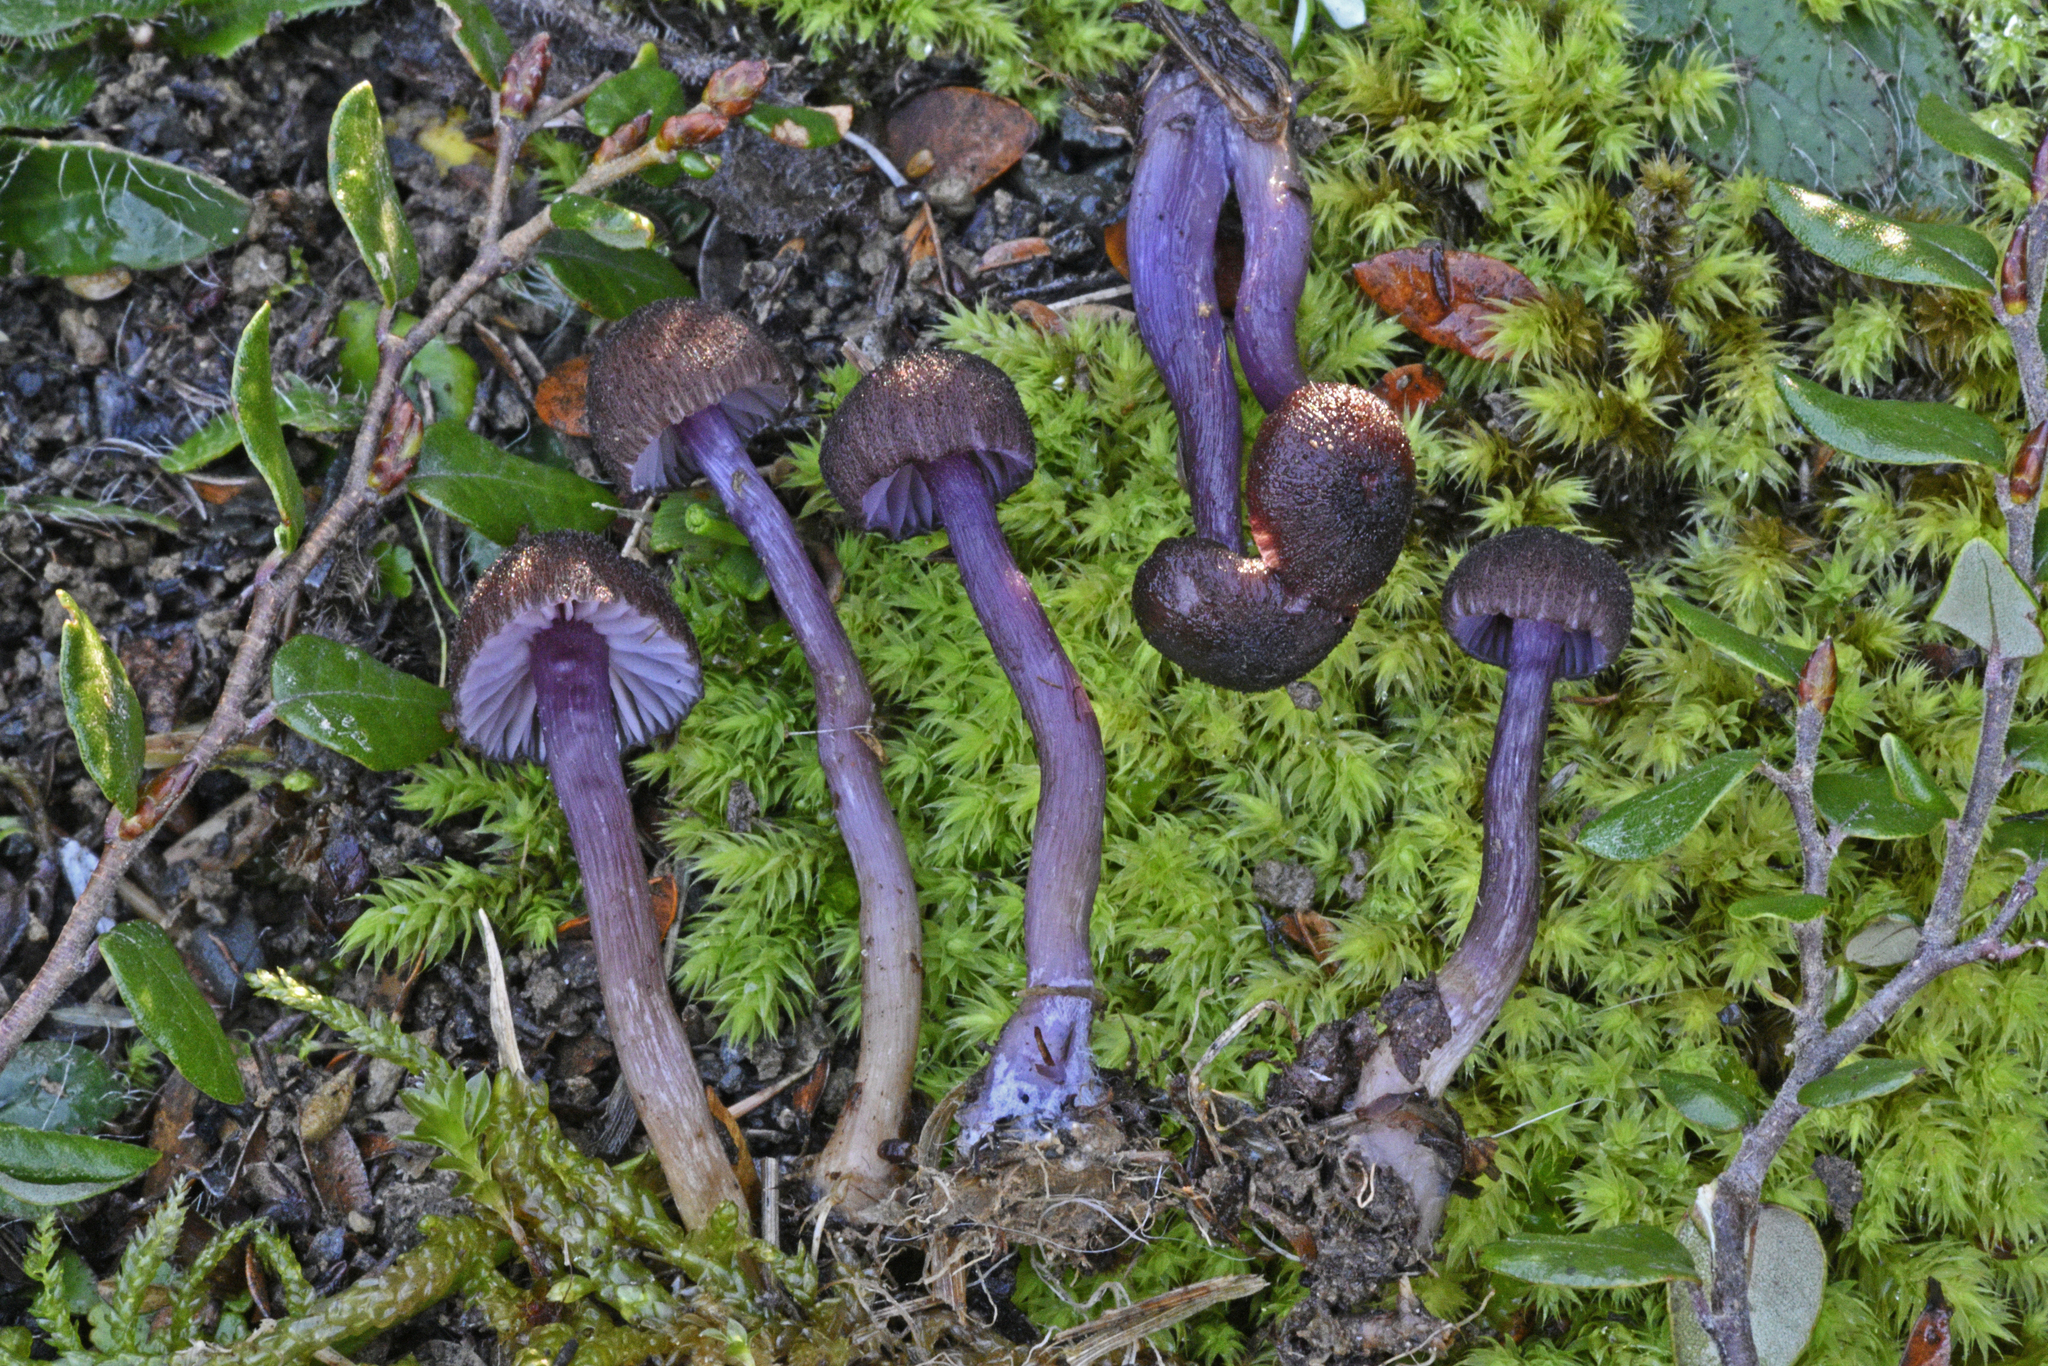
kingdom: Fungi
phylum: Basidiomycota
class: Agaricomycetes
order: Agaricales
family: Hydnangiaceae
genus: Laccaria
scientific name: Laccaria violaceonigra
